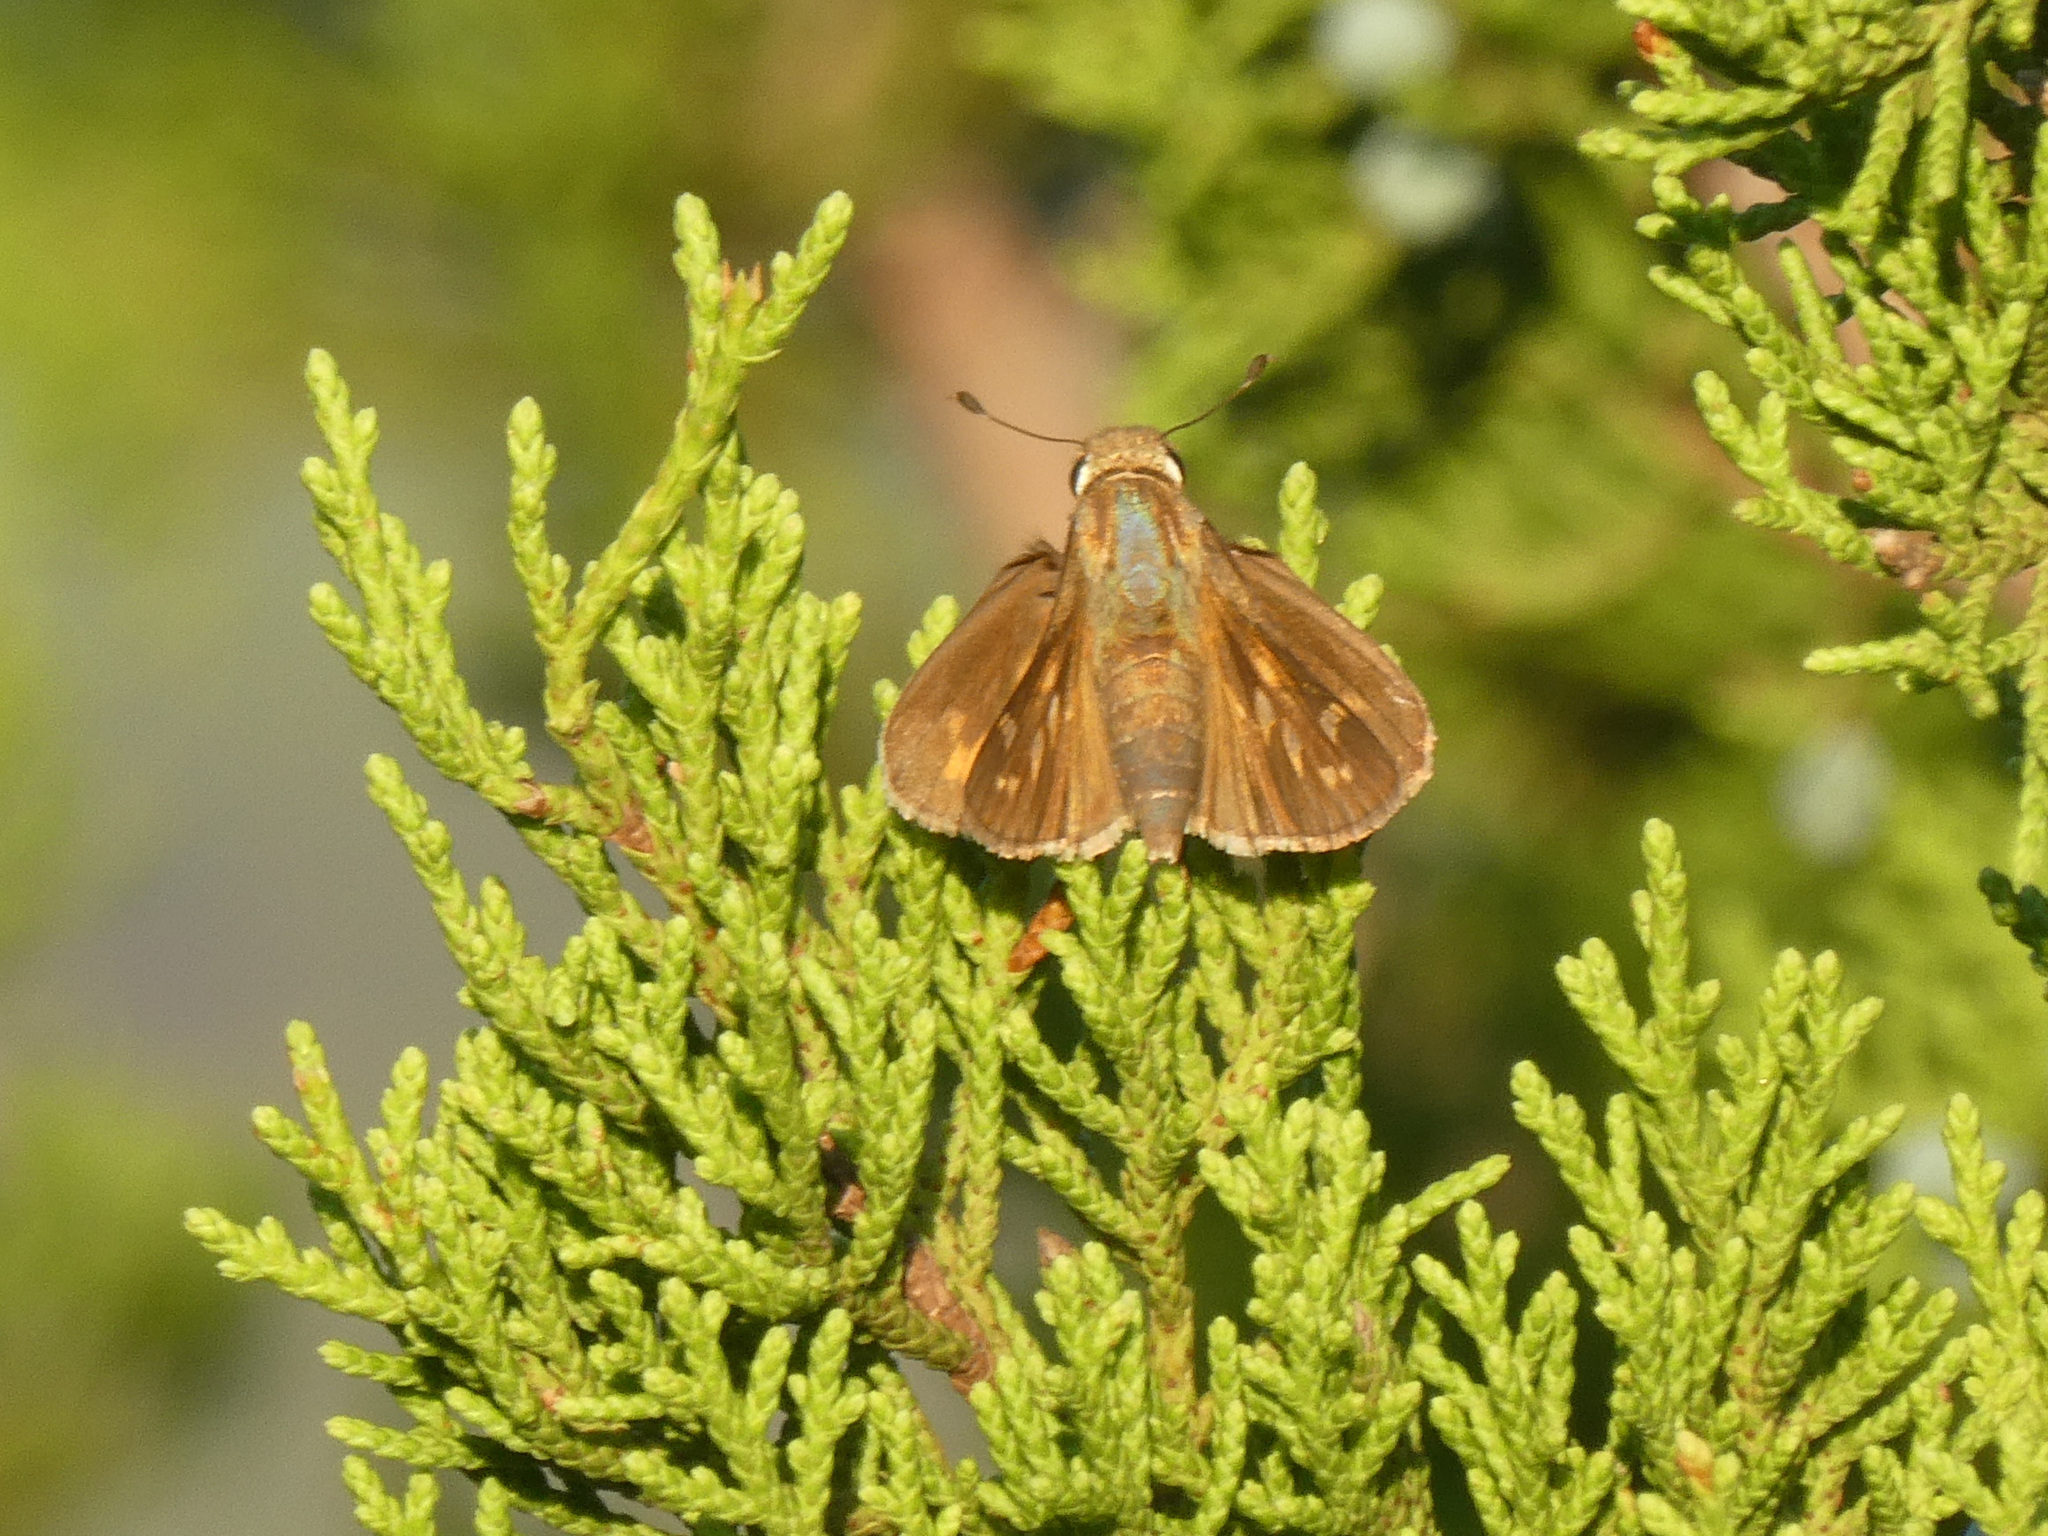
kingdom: Animalia
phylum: Arthropoda
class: Insecta
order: Lepidoptera
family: Hesperiidae
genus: Atalopedes
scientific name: Atalopedes
